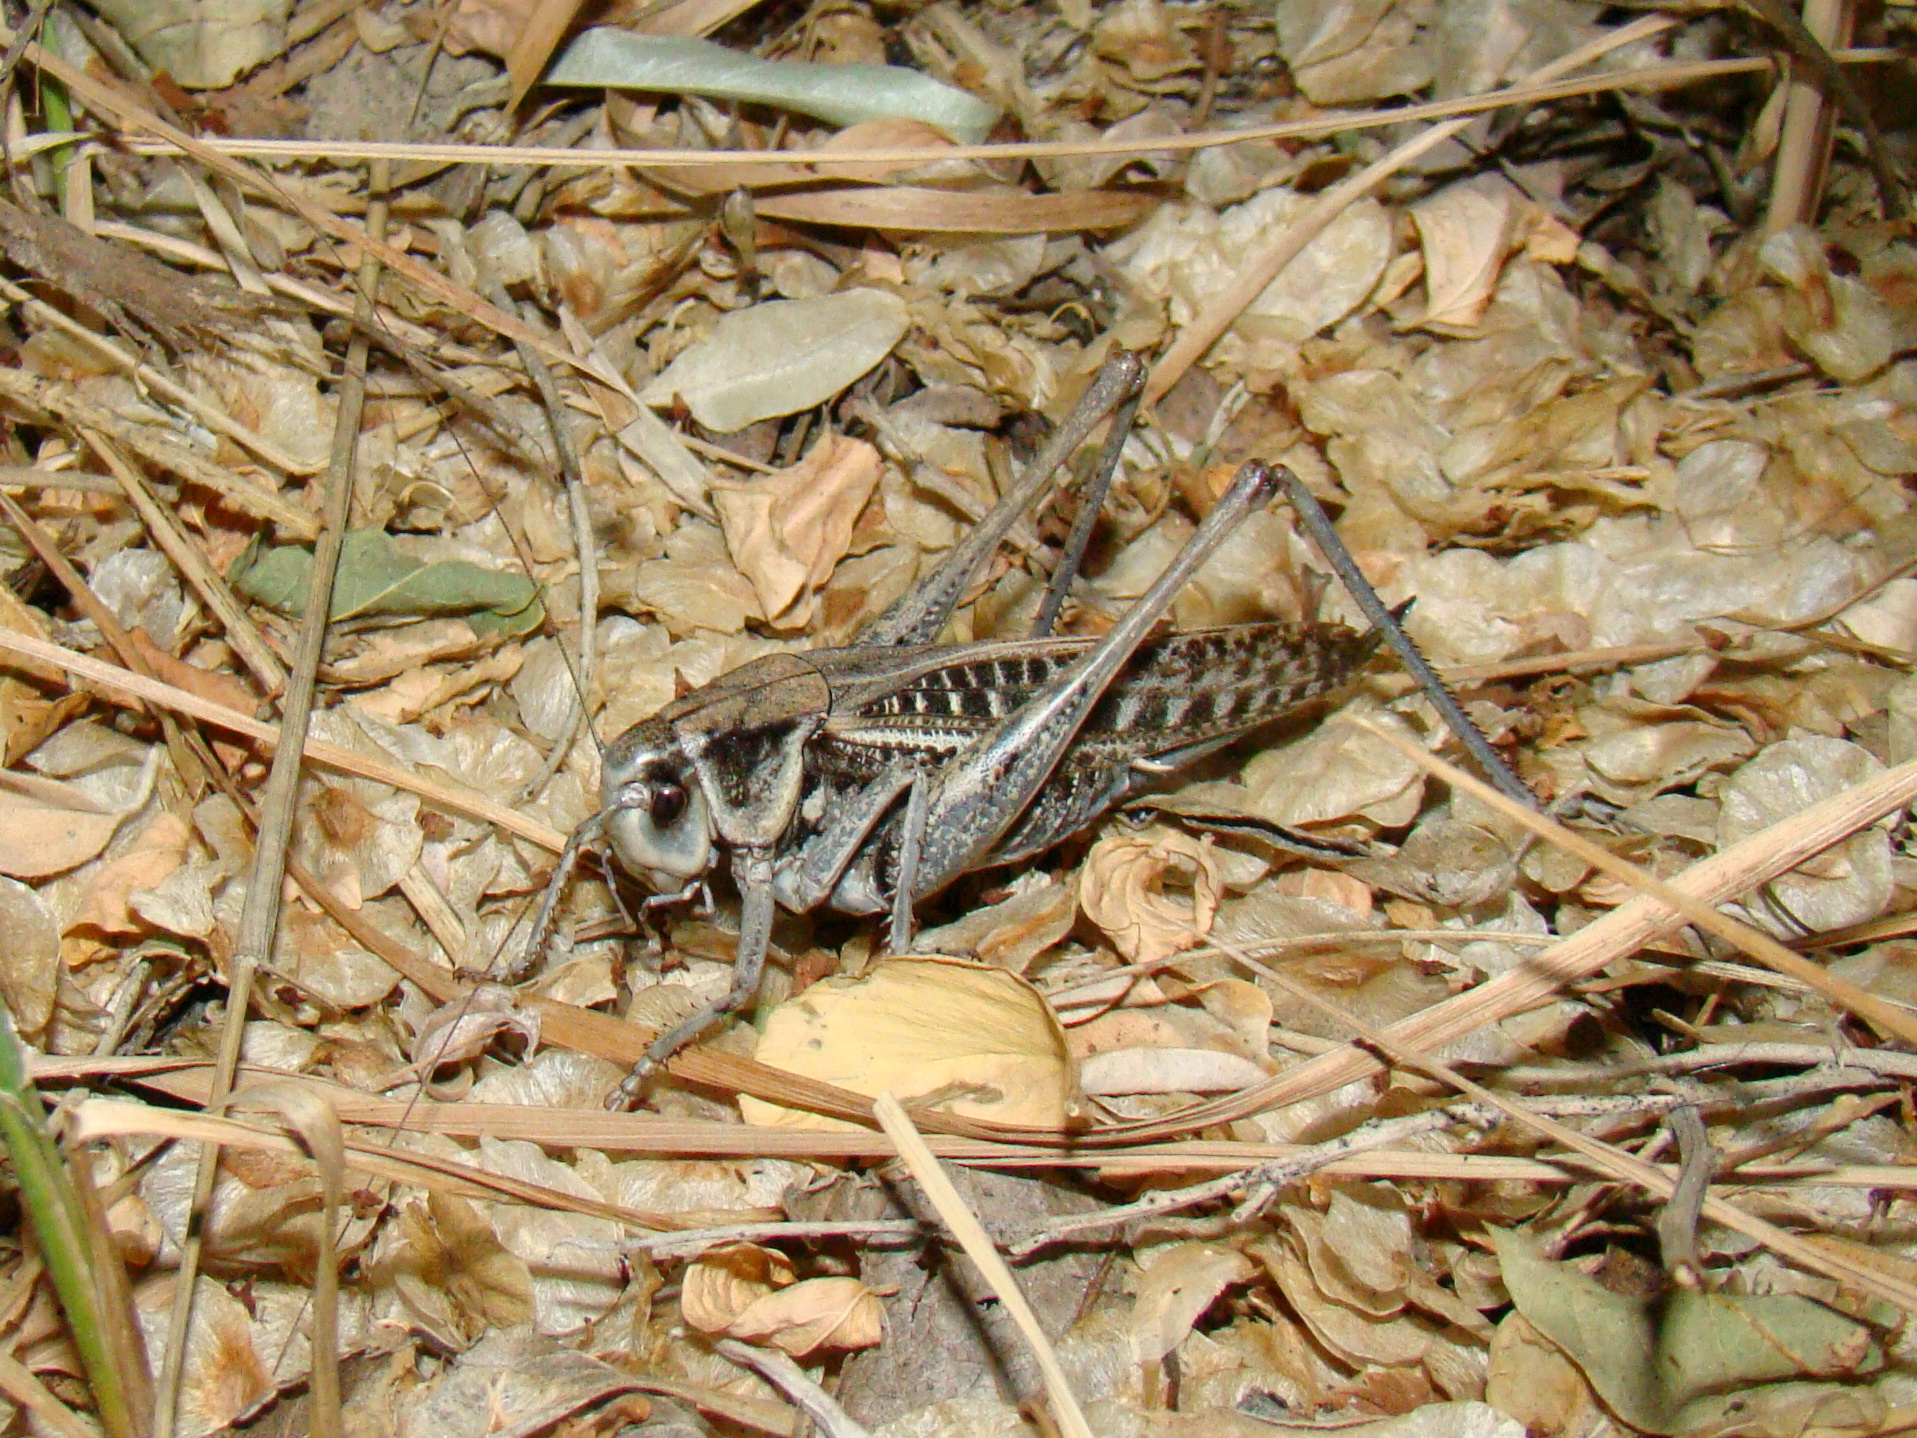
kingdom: Animalia
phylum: Arthropoda
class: Insecta
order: Orthoptera
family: Tettigoniidae
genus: Decticus
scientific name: Decticus verrucivorus
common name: Wart-biter
